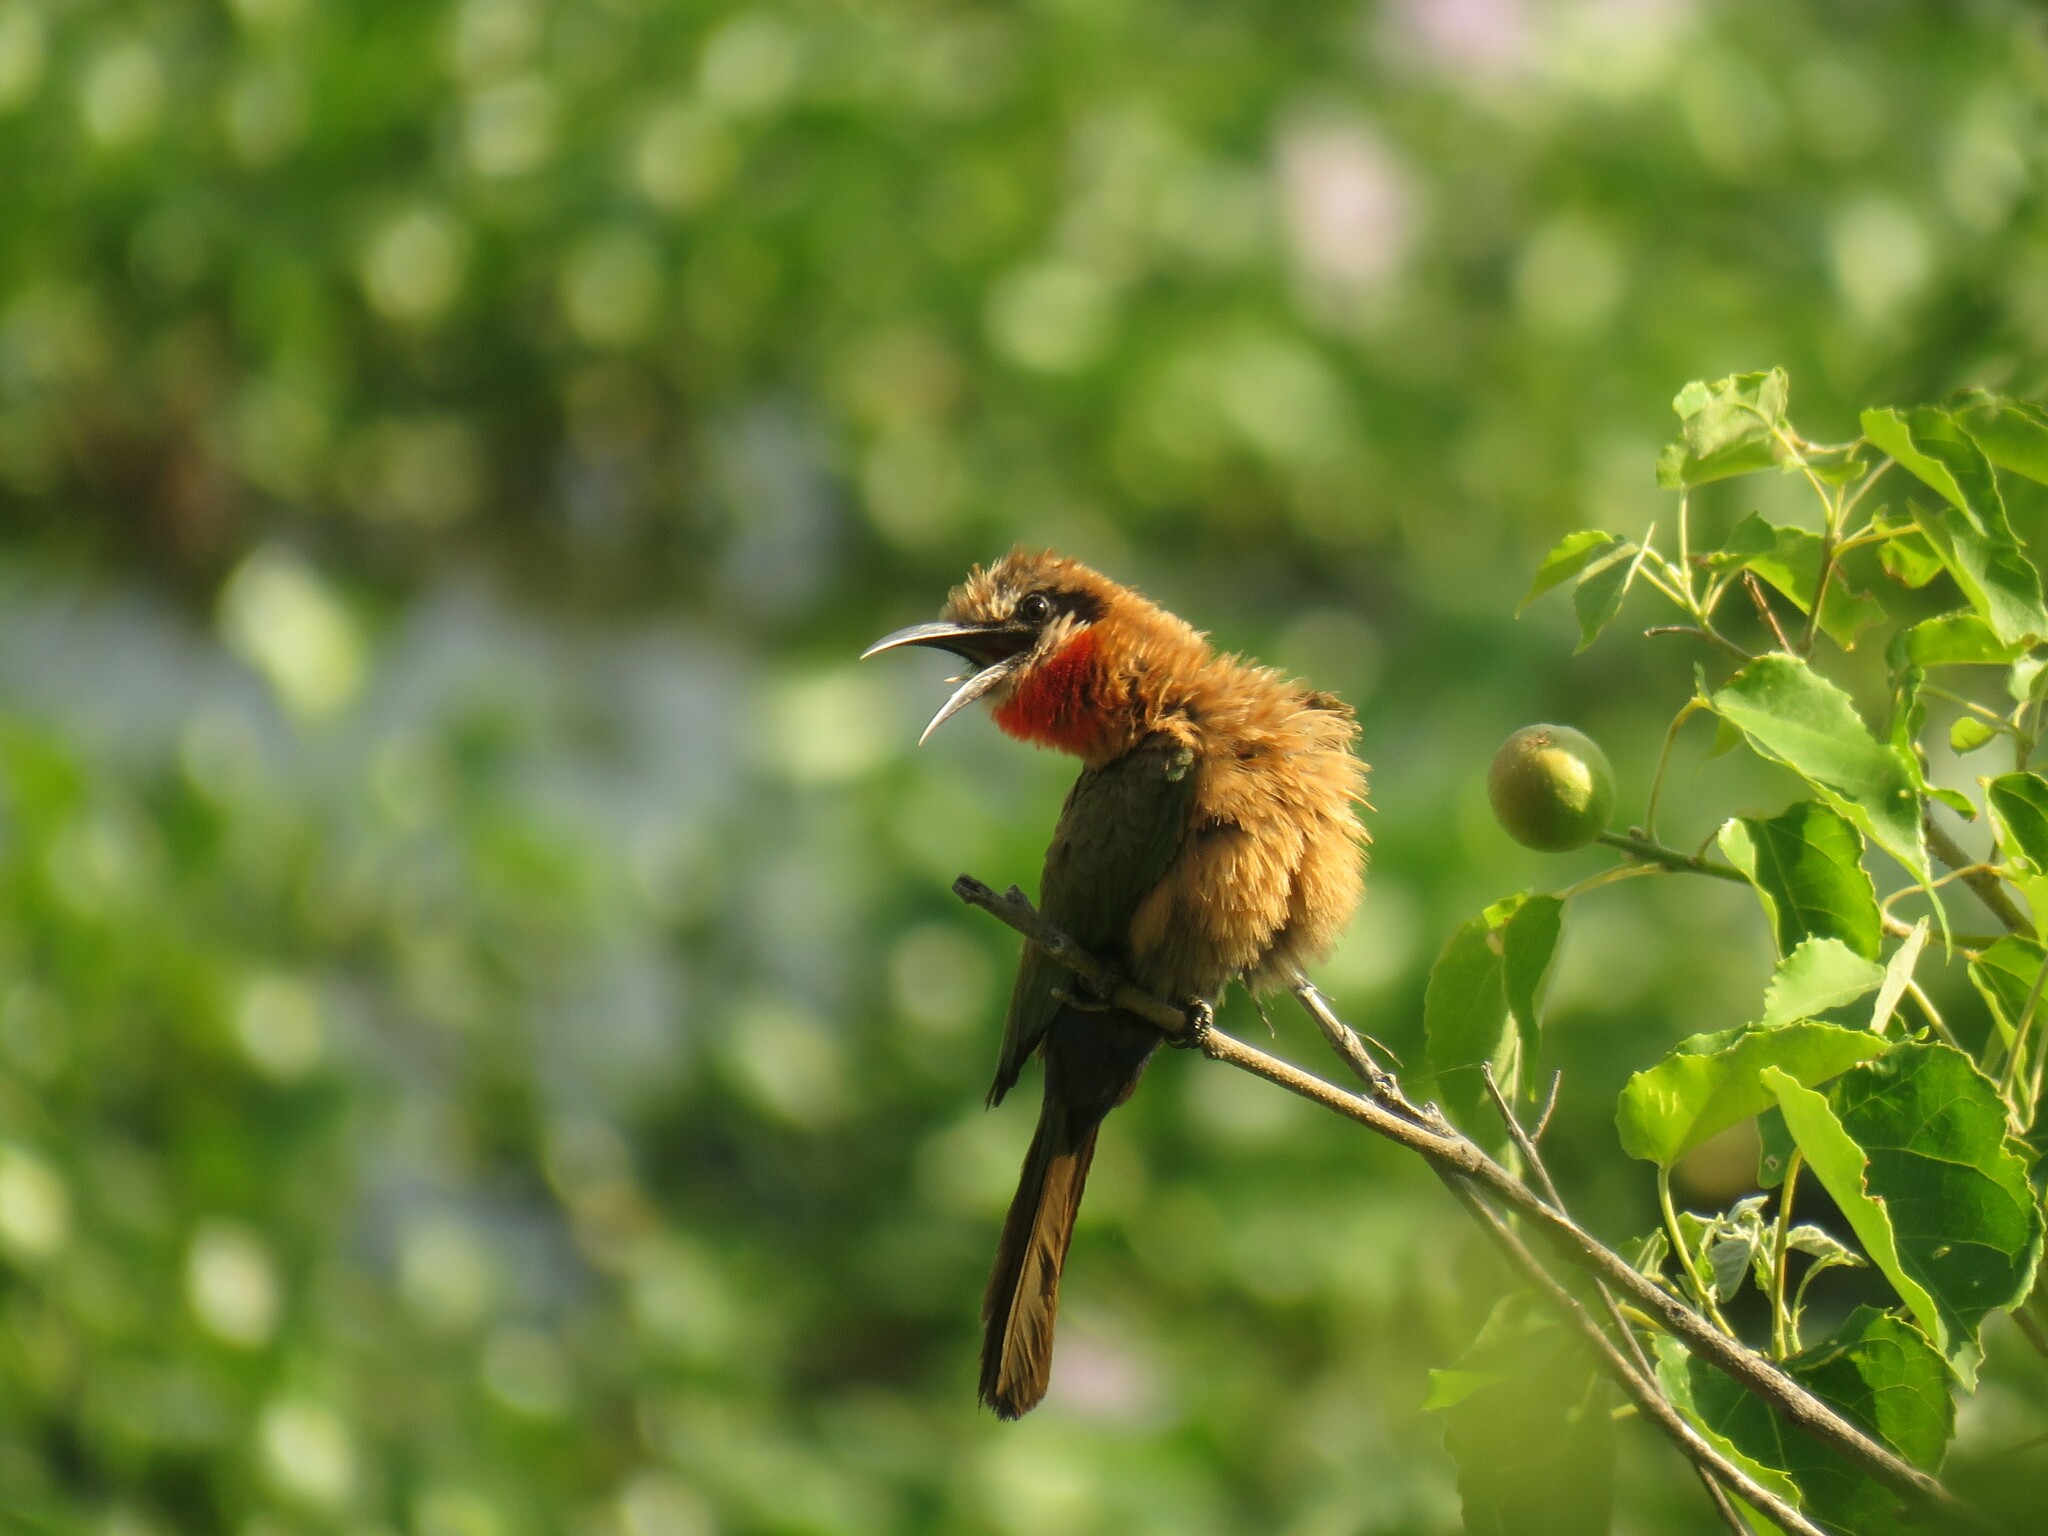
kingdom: Animalia
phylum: Chordata
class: Aves
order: Coraciiformes
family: Meropidae
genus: Merops
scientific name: Merops bullockoides
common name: White-fronted bee-eater
